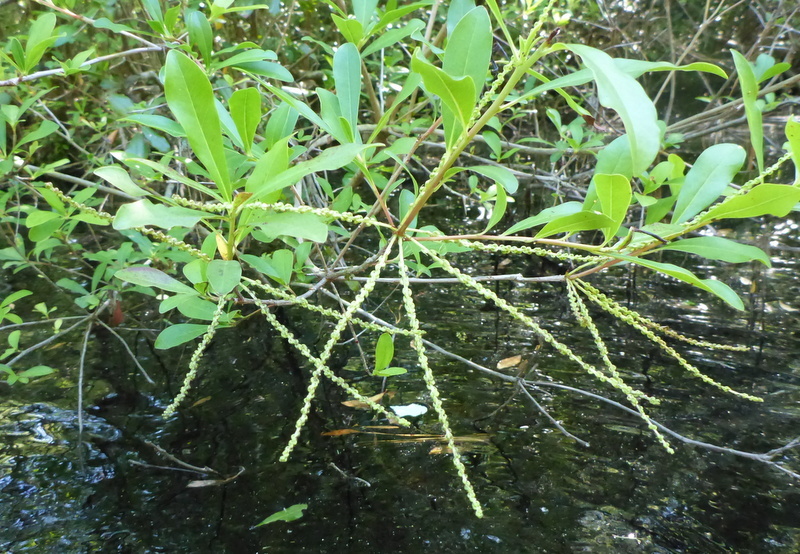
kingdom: Plantae
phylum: Tracheophyta
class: Magnoliopsida
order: Ericales
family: Cyrillaceae
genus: Cyrilla
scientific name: Cyrilla racemiflora
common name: Black titi
